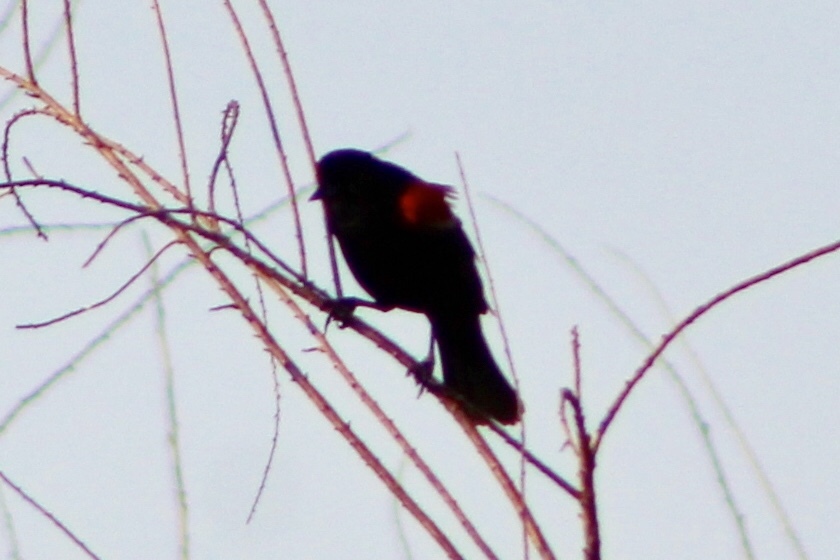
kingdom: Animalia
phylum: Chordata
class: Aves
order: Passeriformes
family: Icteridae
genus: Agelaius
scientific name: Agelaius phoeniceus
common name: Red-winged blackbird
